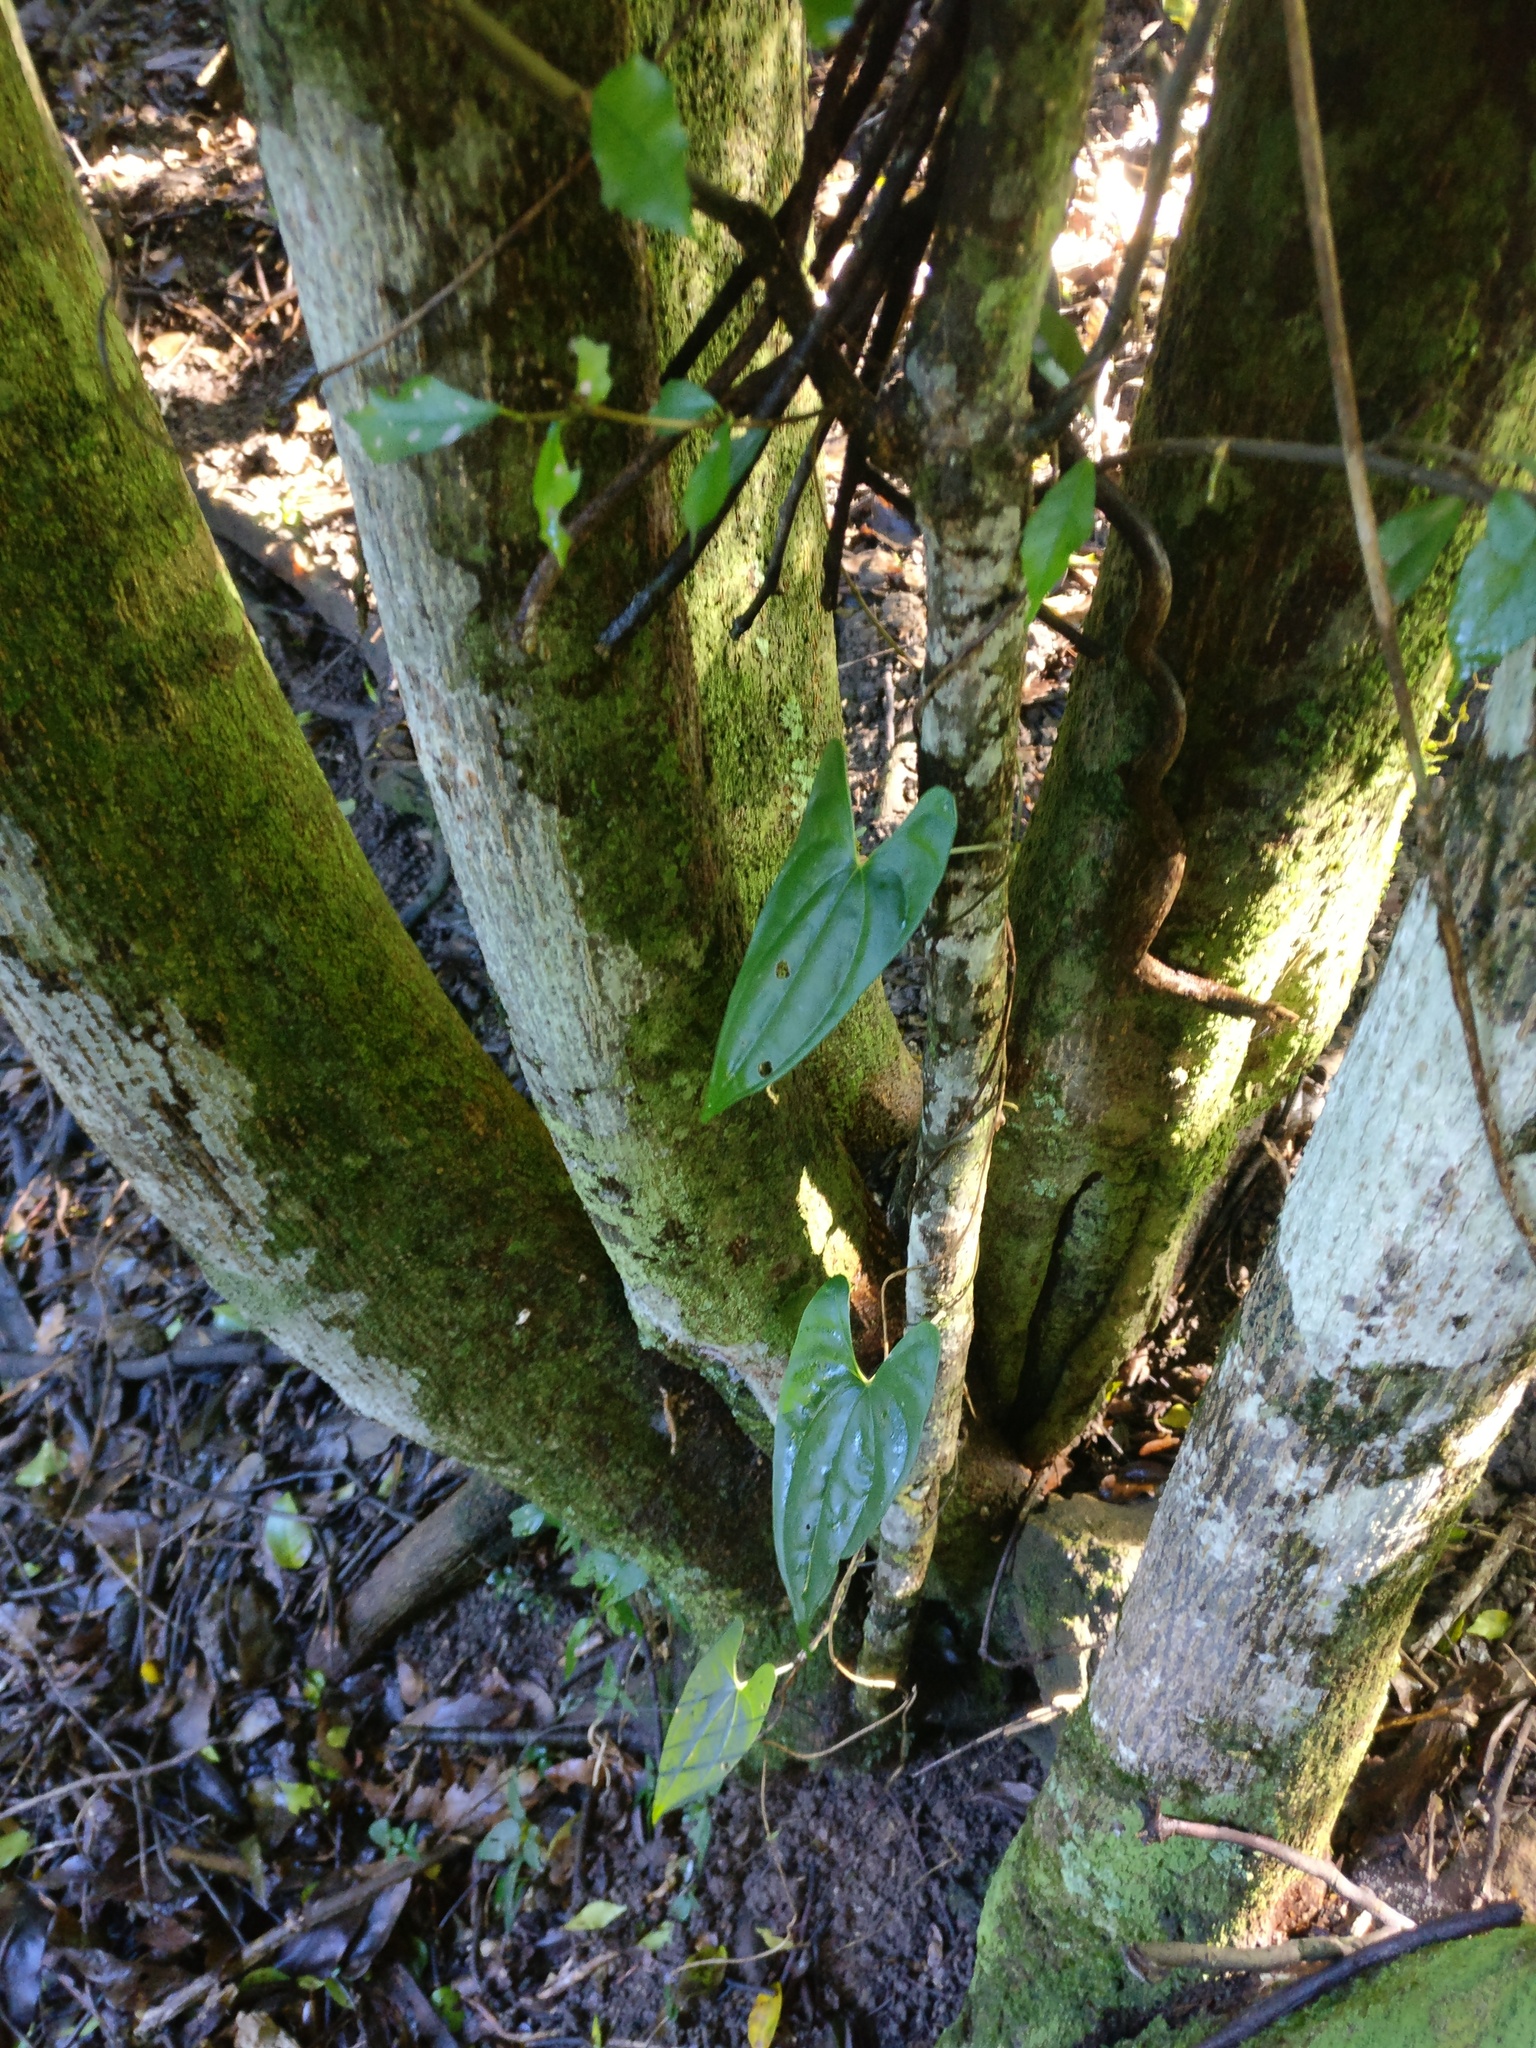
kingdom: Plantae
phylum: Tracheophyta
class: Liliopsida
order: Dioscoreales
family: Dioscoreaceae
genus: Dioscorea
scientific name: Dioscorea transversa
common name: Long yam
